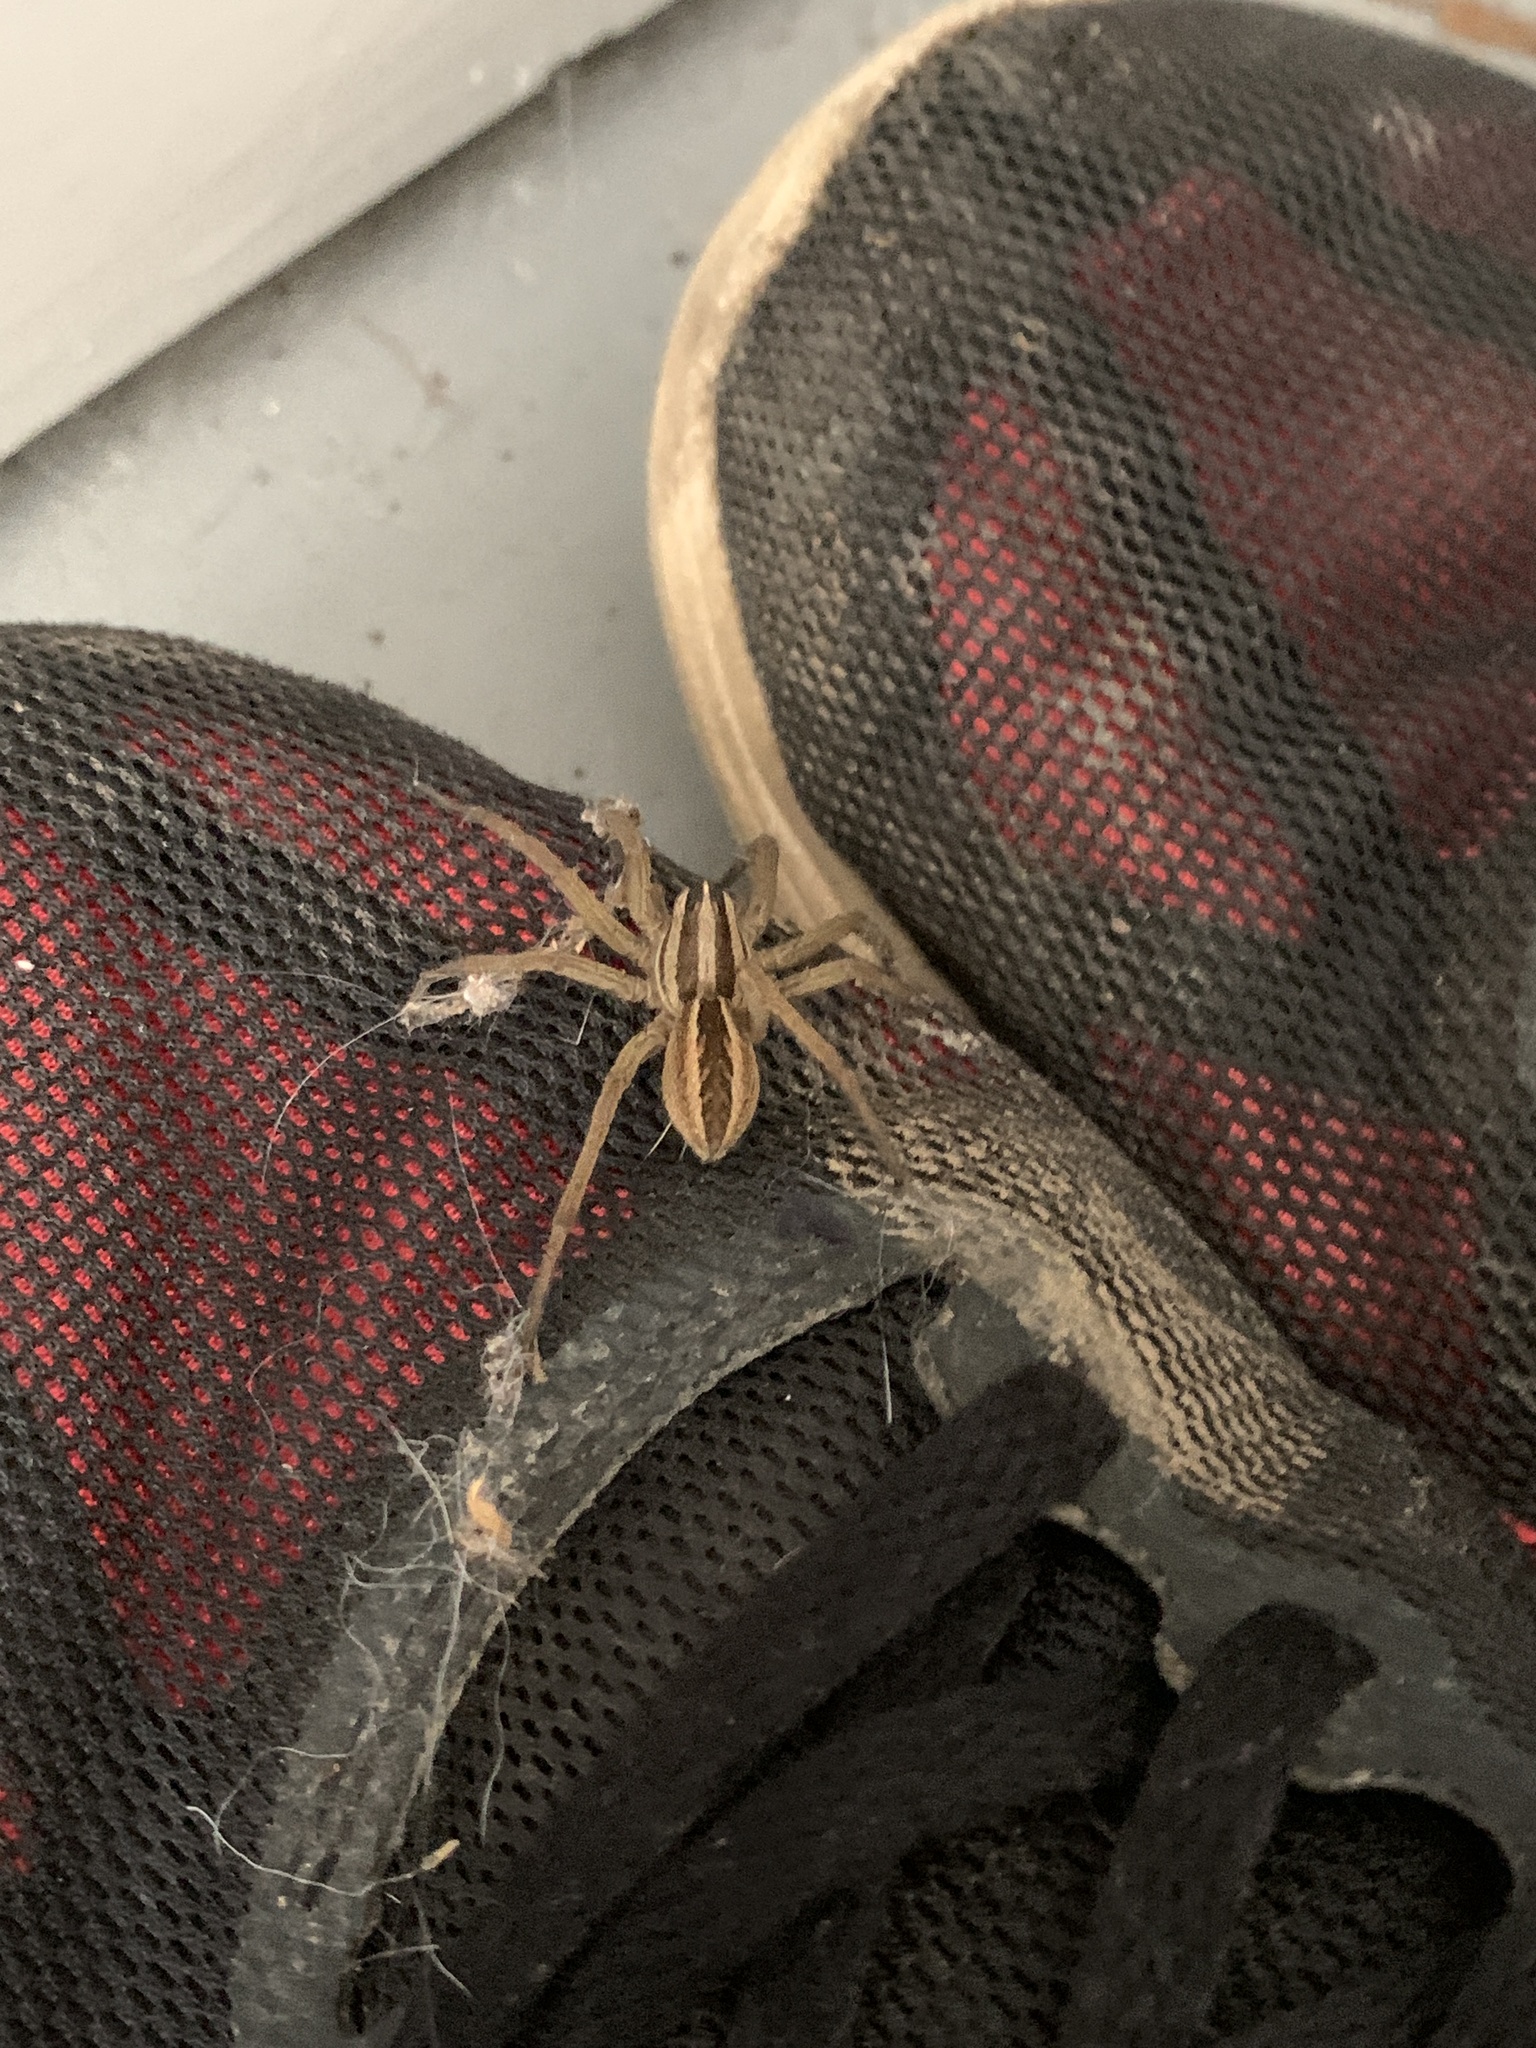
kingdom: Animalia
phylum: Arthropoda
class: Arachnida
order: Araneae
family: Lycosidae
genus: Rabidosa
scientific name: Rabidosa rabida
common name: Rabid wolf spider
